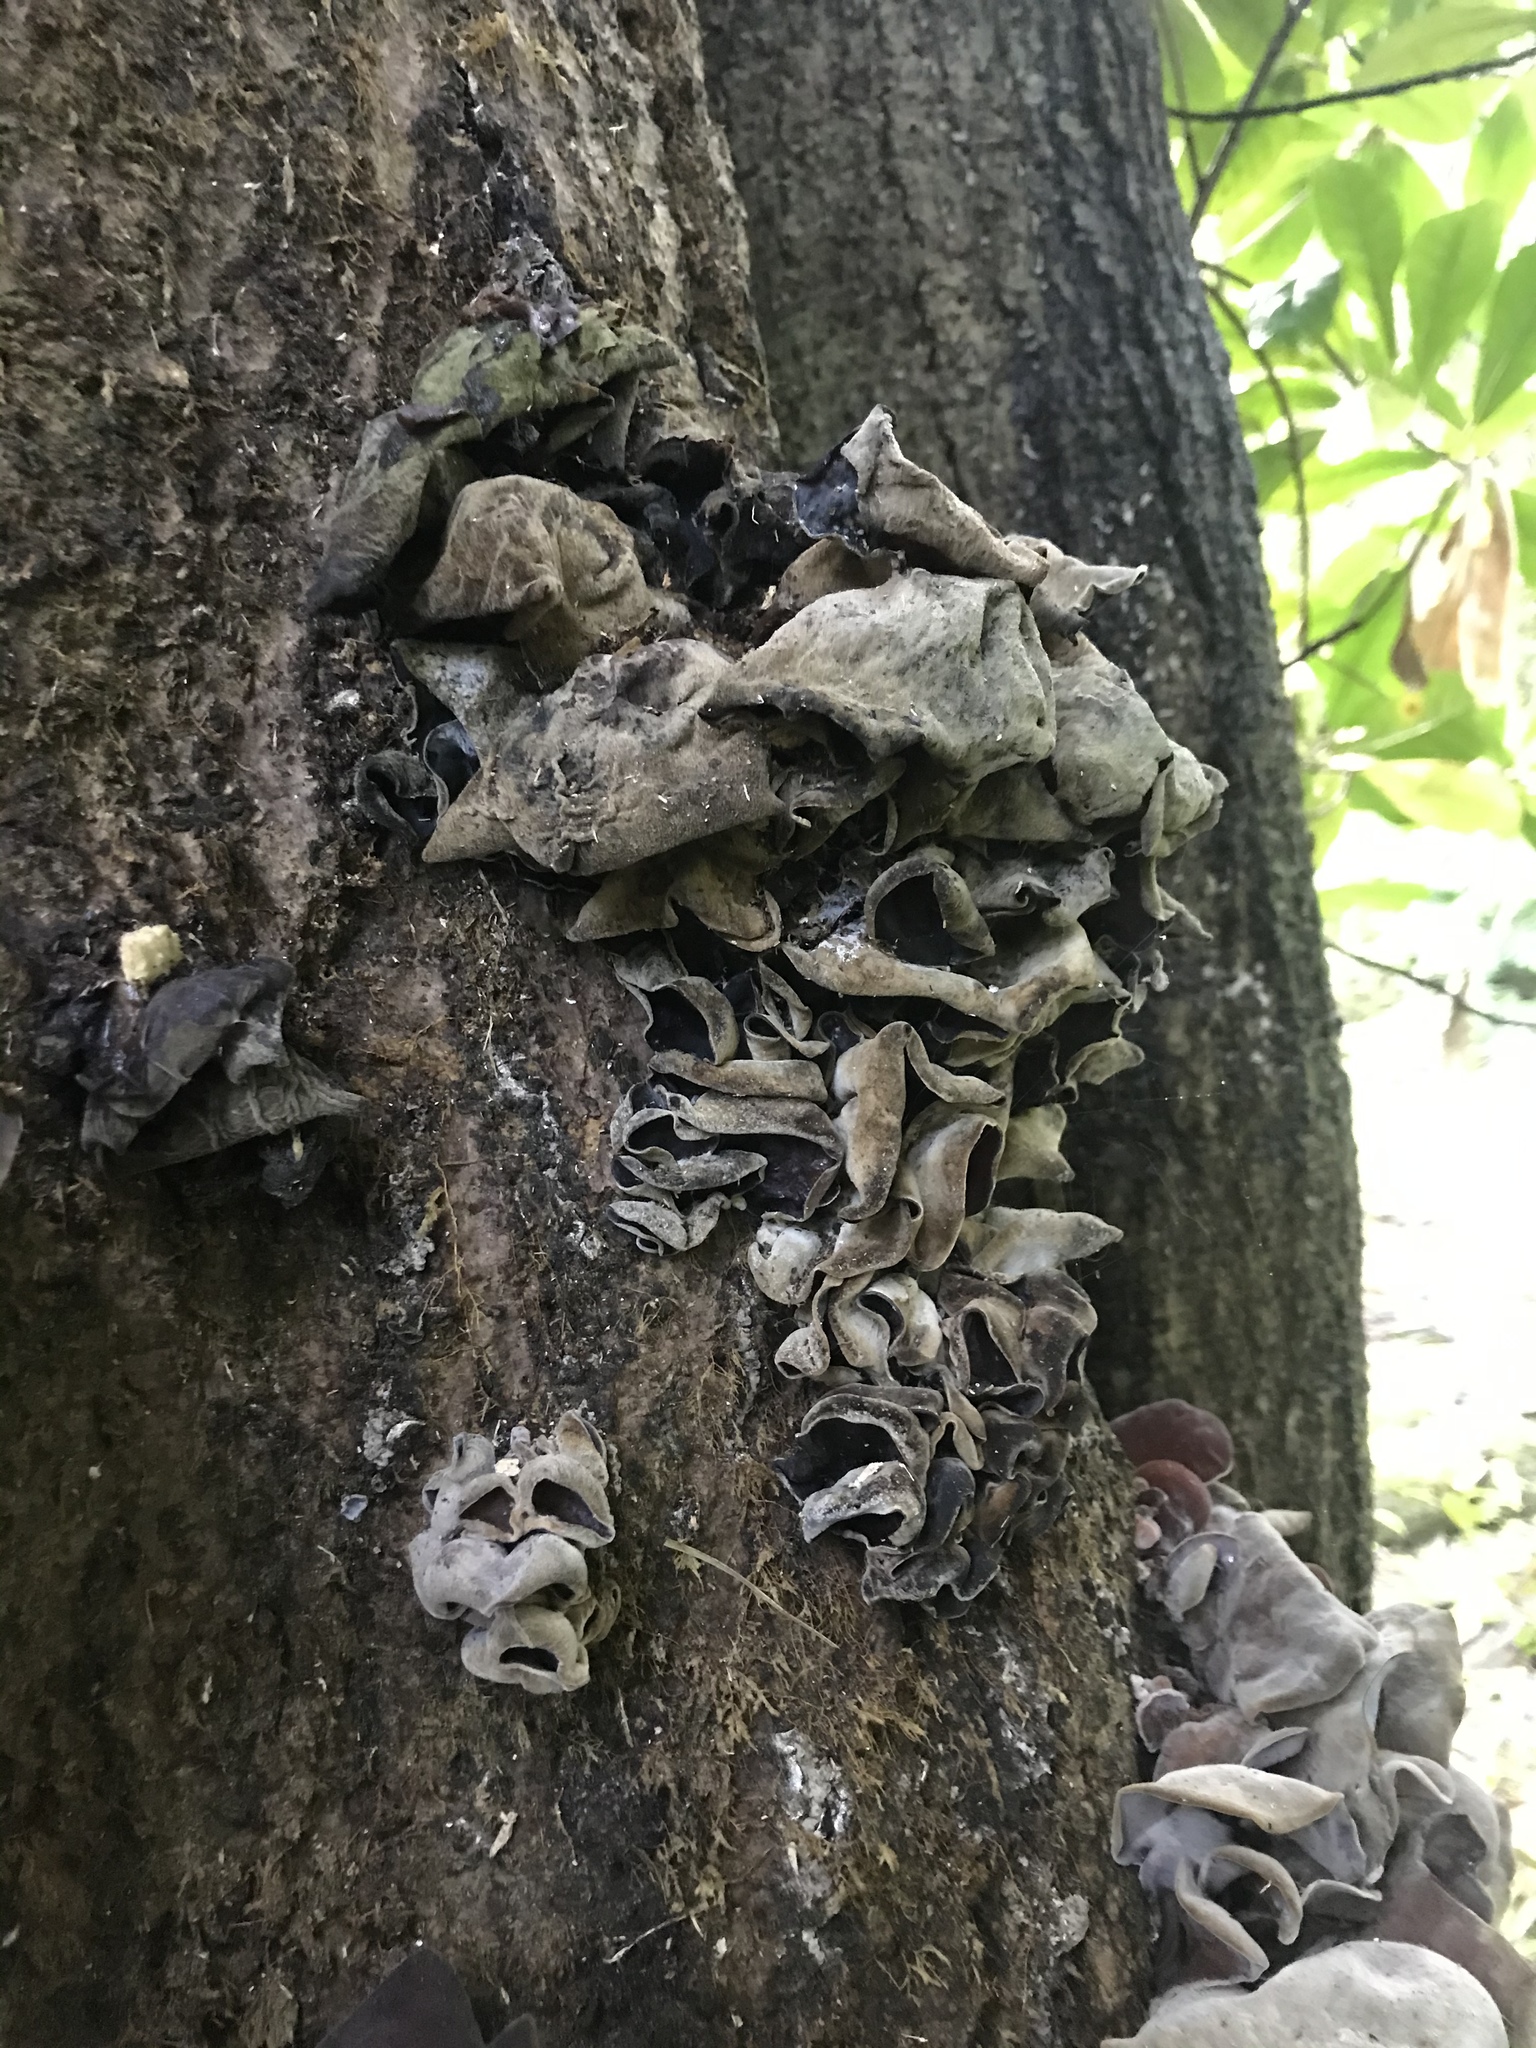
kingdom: Fungi
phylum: Basidiomycota
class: Agaricomycetes
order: Auriculariales
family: Auriculariaceae
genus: Auricularia
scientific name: Auricularia cornea
